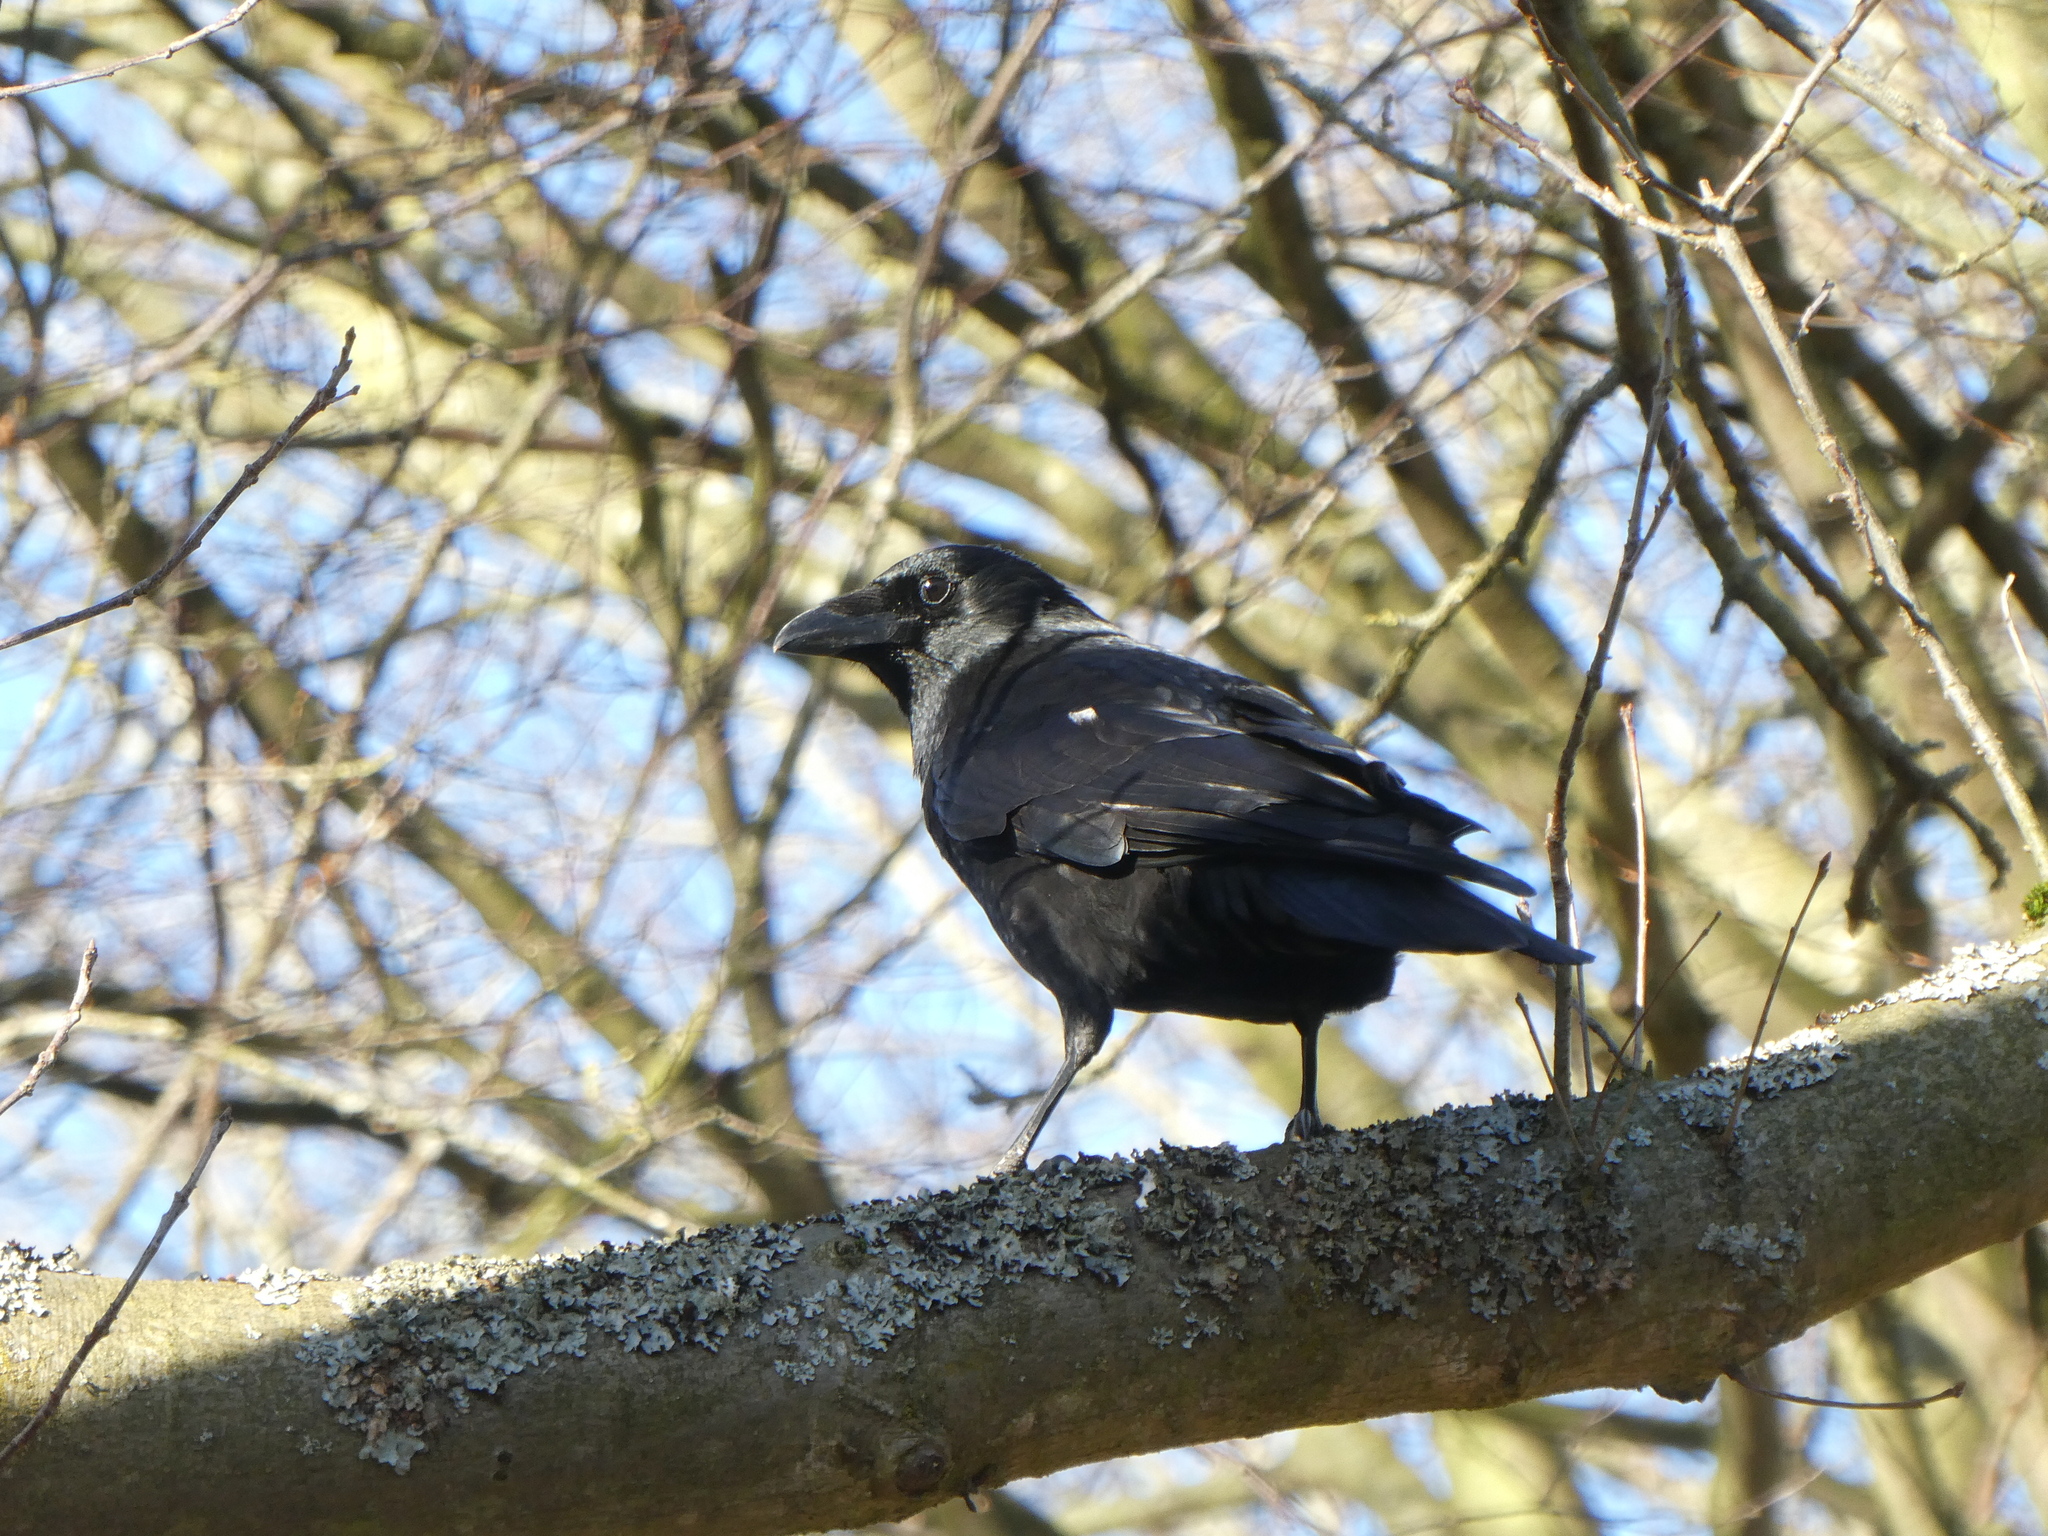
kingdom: Animalia
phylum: Chordata
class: Aves
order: Passeriformes
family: Corvidae
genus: Corvus
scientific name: Corvus corone
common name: Carrion crow
